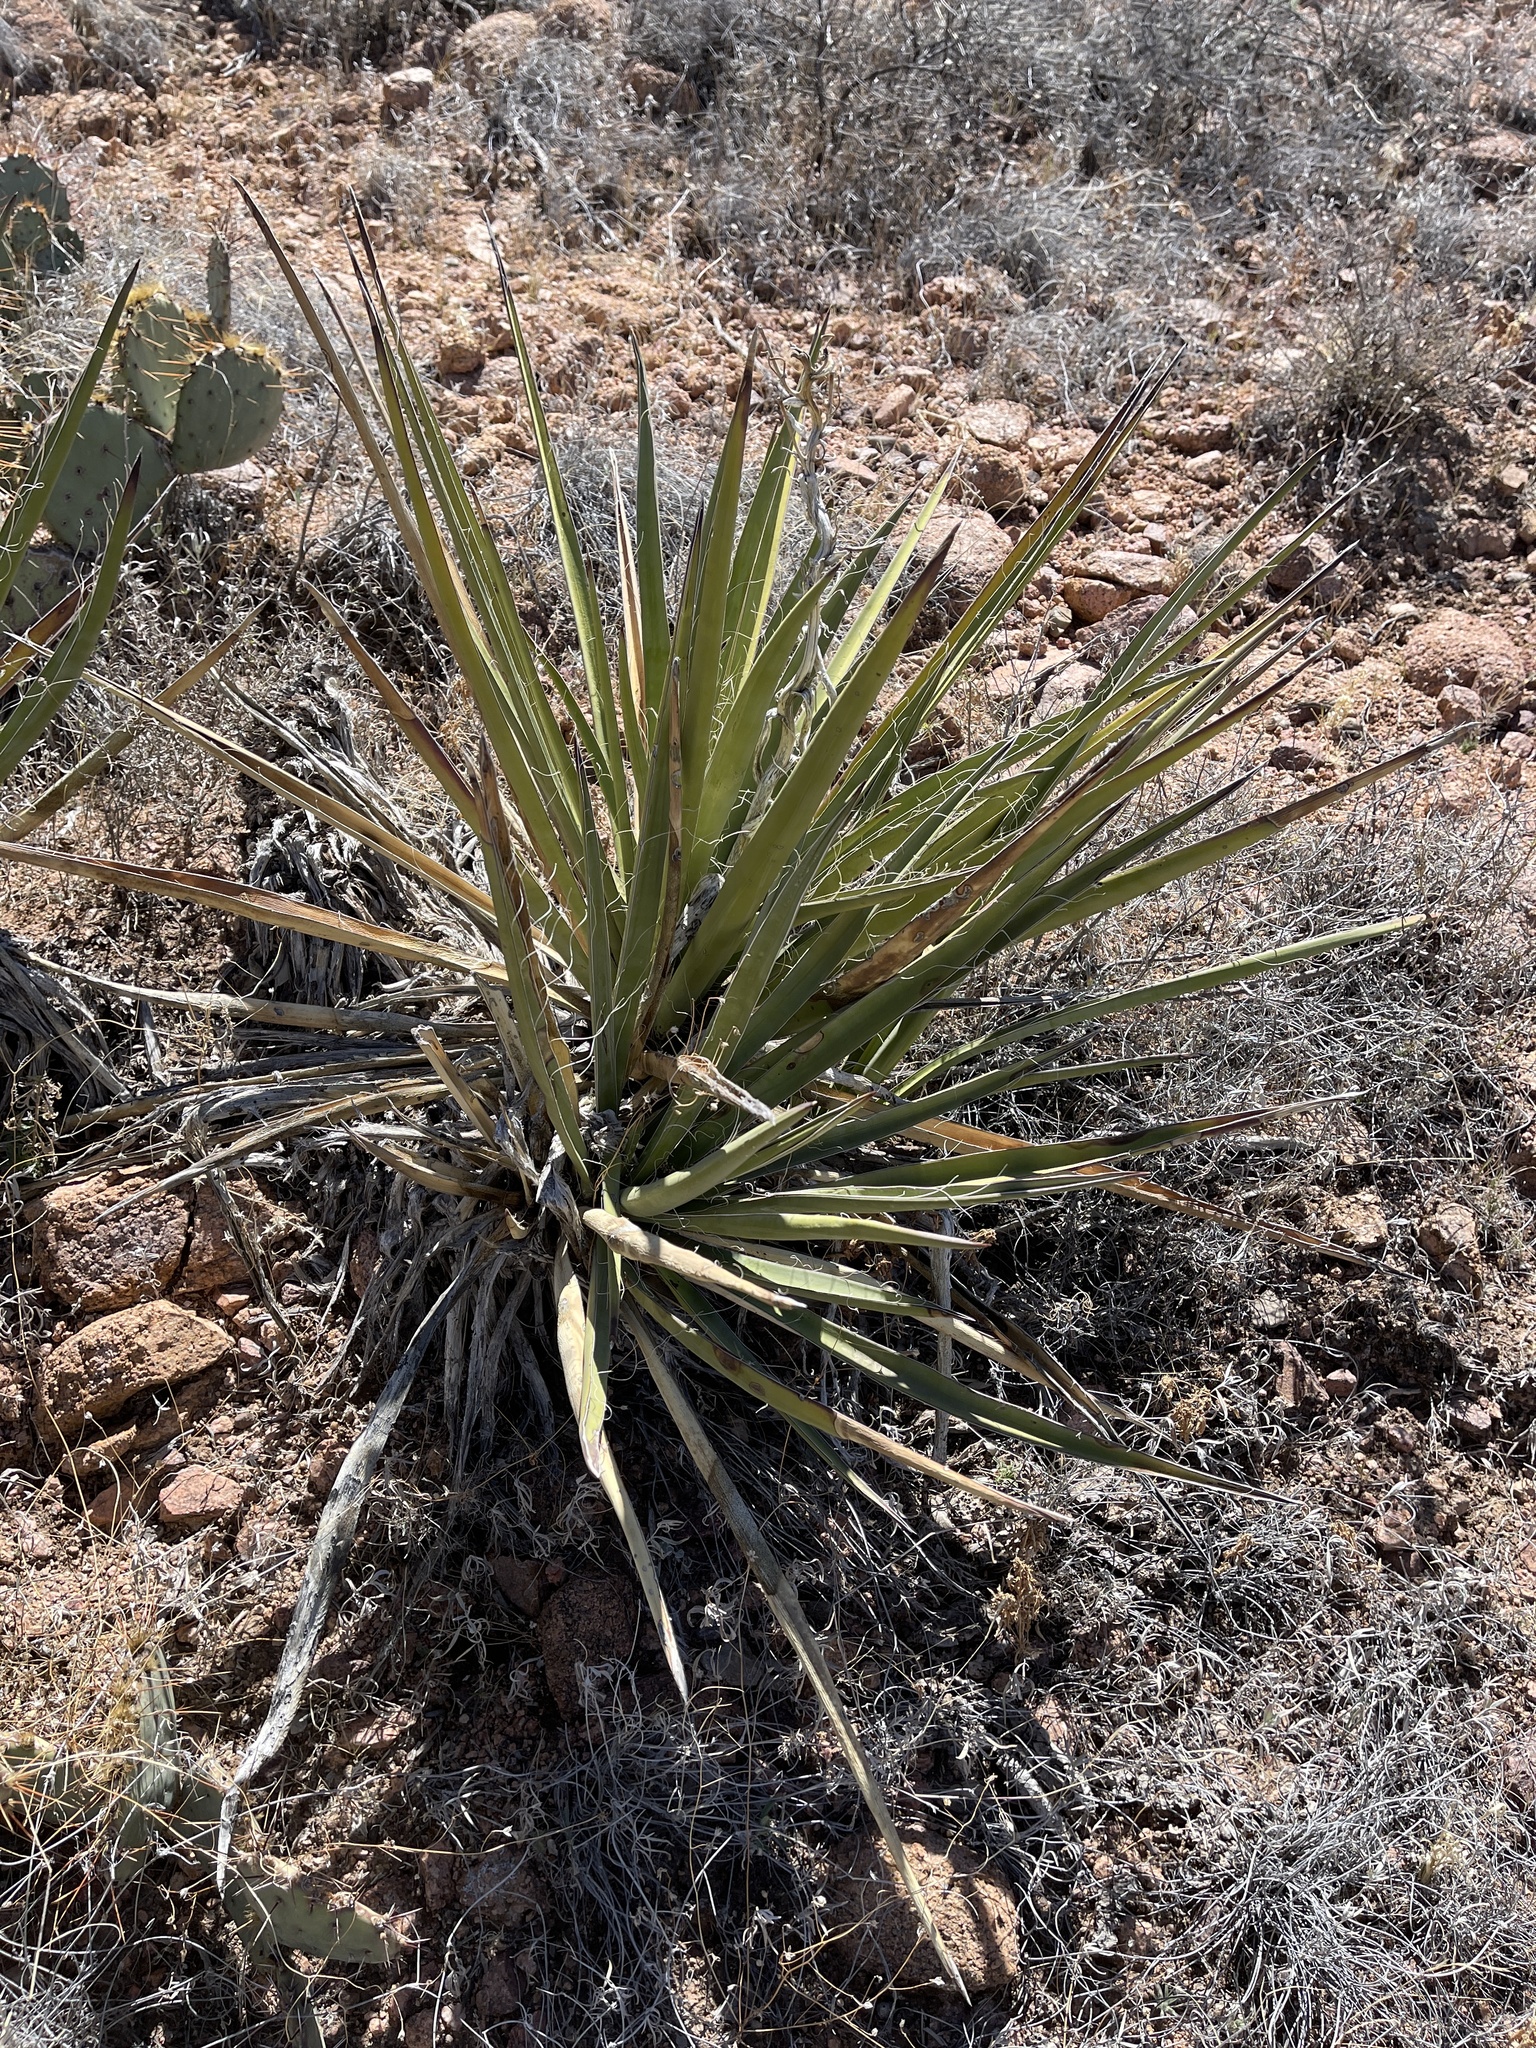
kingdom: Plantae
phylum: Tracheophyta
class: Liliopsida
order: Asparagales
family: Asparagaceae
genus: Yucca
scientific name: Yucca baccata
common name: Banana yucca
